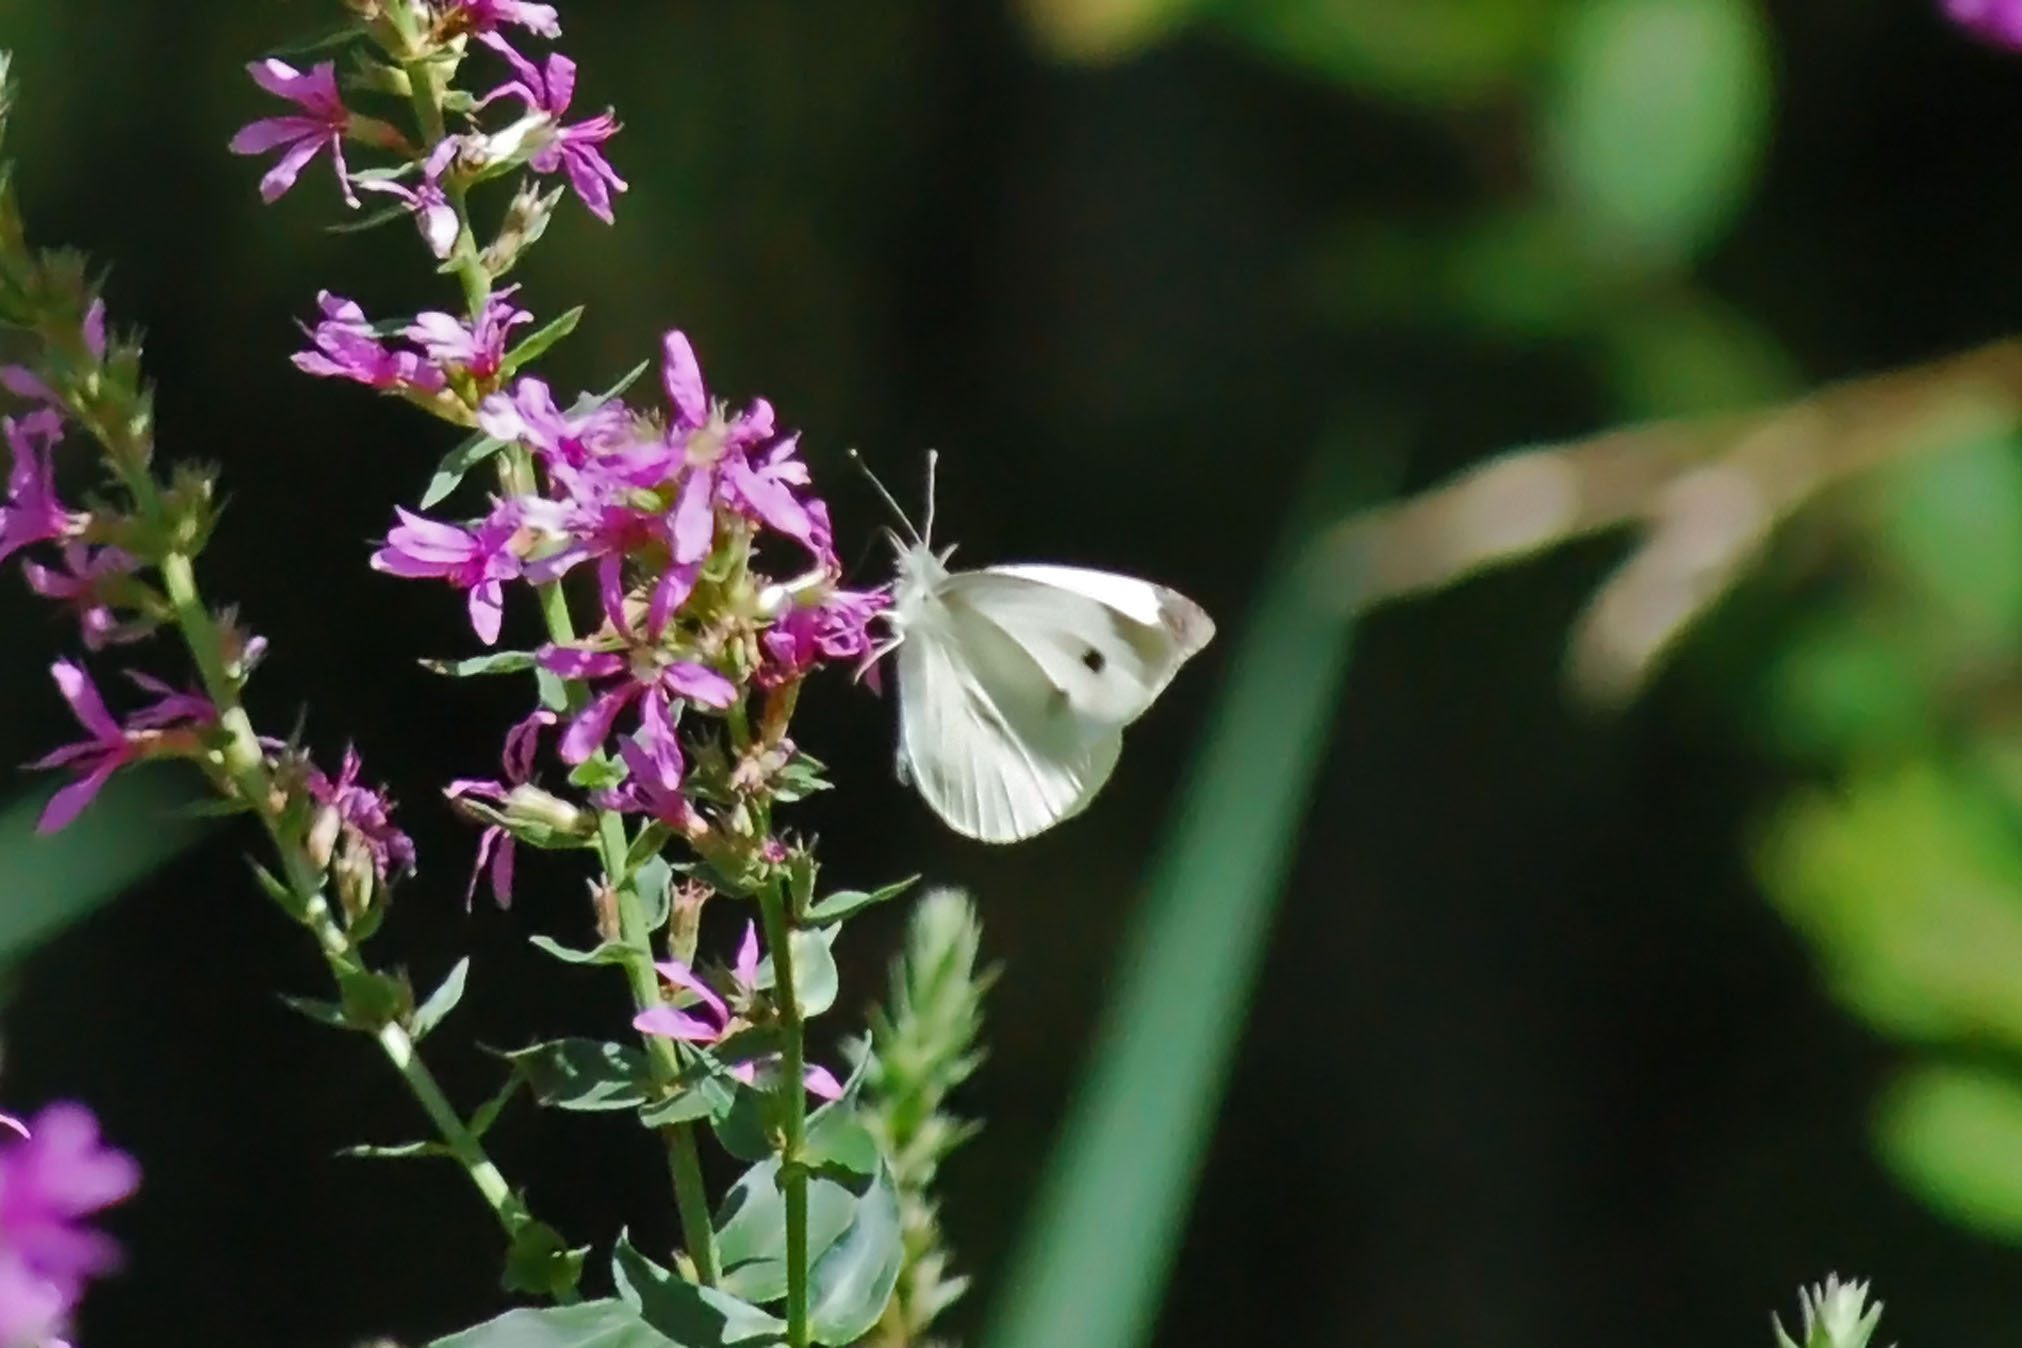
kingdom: Animalia
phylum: Arthropoda
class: Insecta
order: Lepidoptera
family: Pieridae
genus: Pieris
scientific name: Pieris rapae
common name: Small white
